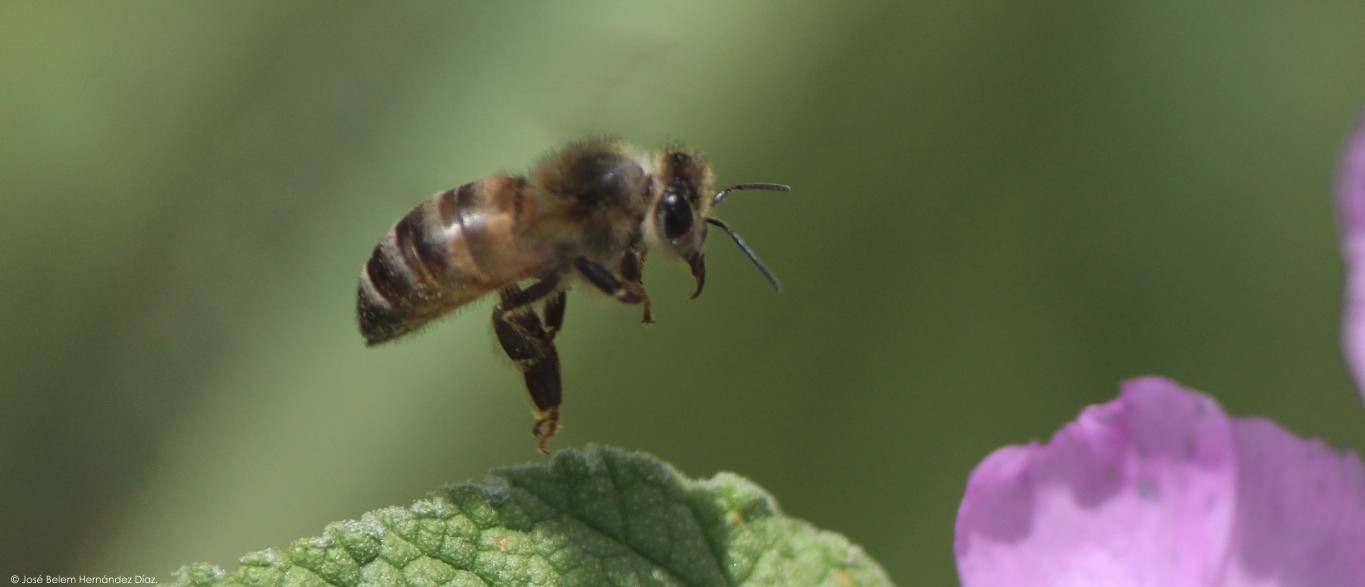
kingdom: Animalia
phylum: Arthropoda
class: Insecta
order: Hymenoptera
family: Apidae
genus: Apis
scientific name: Apis mellifera
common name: Honey bee
